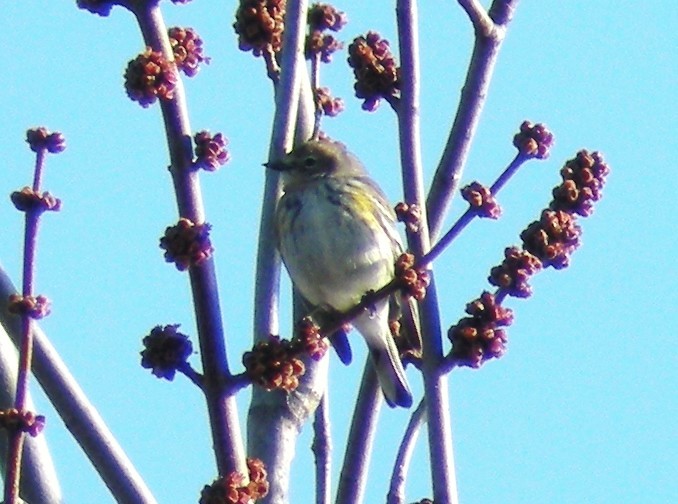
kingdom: Animalia
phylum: Chordata
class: Aves
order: Passeriformes
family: Parulidae
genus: Setophaga
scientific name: Setophaga coronata
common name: Myrtle warbler
